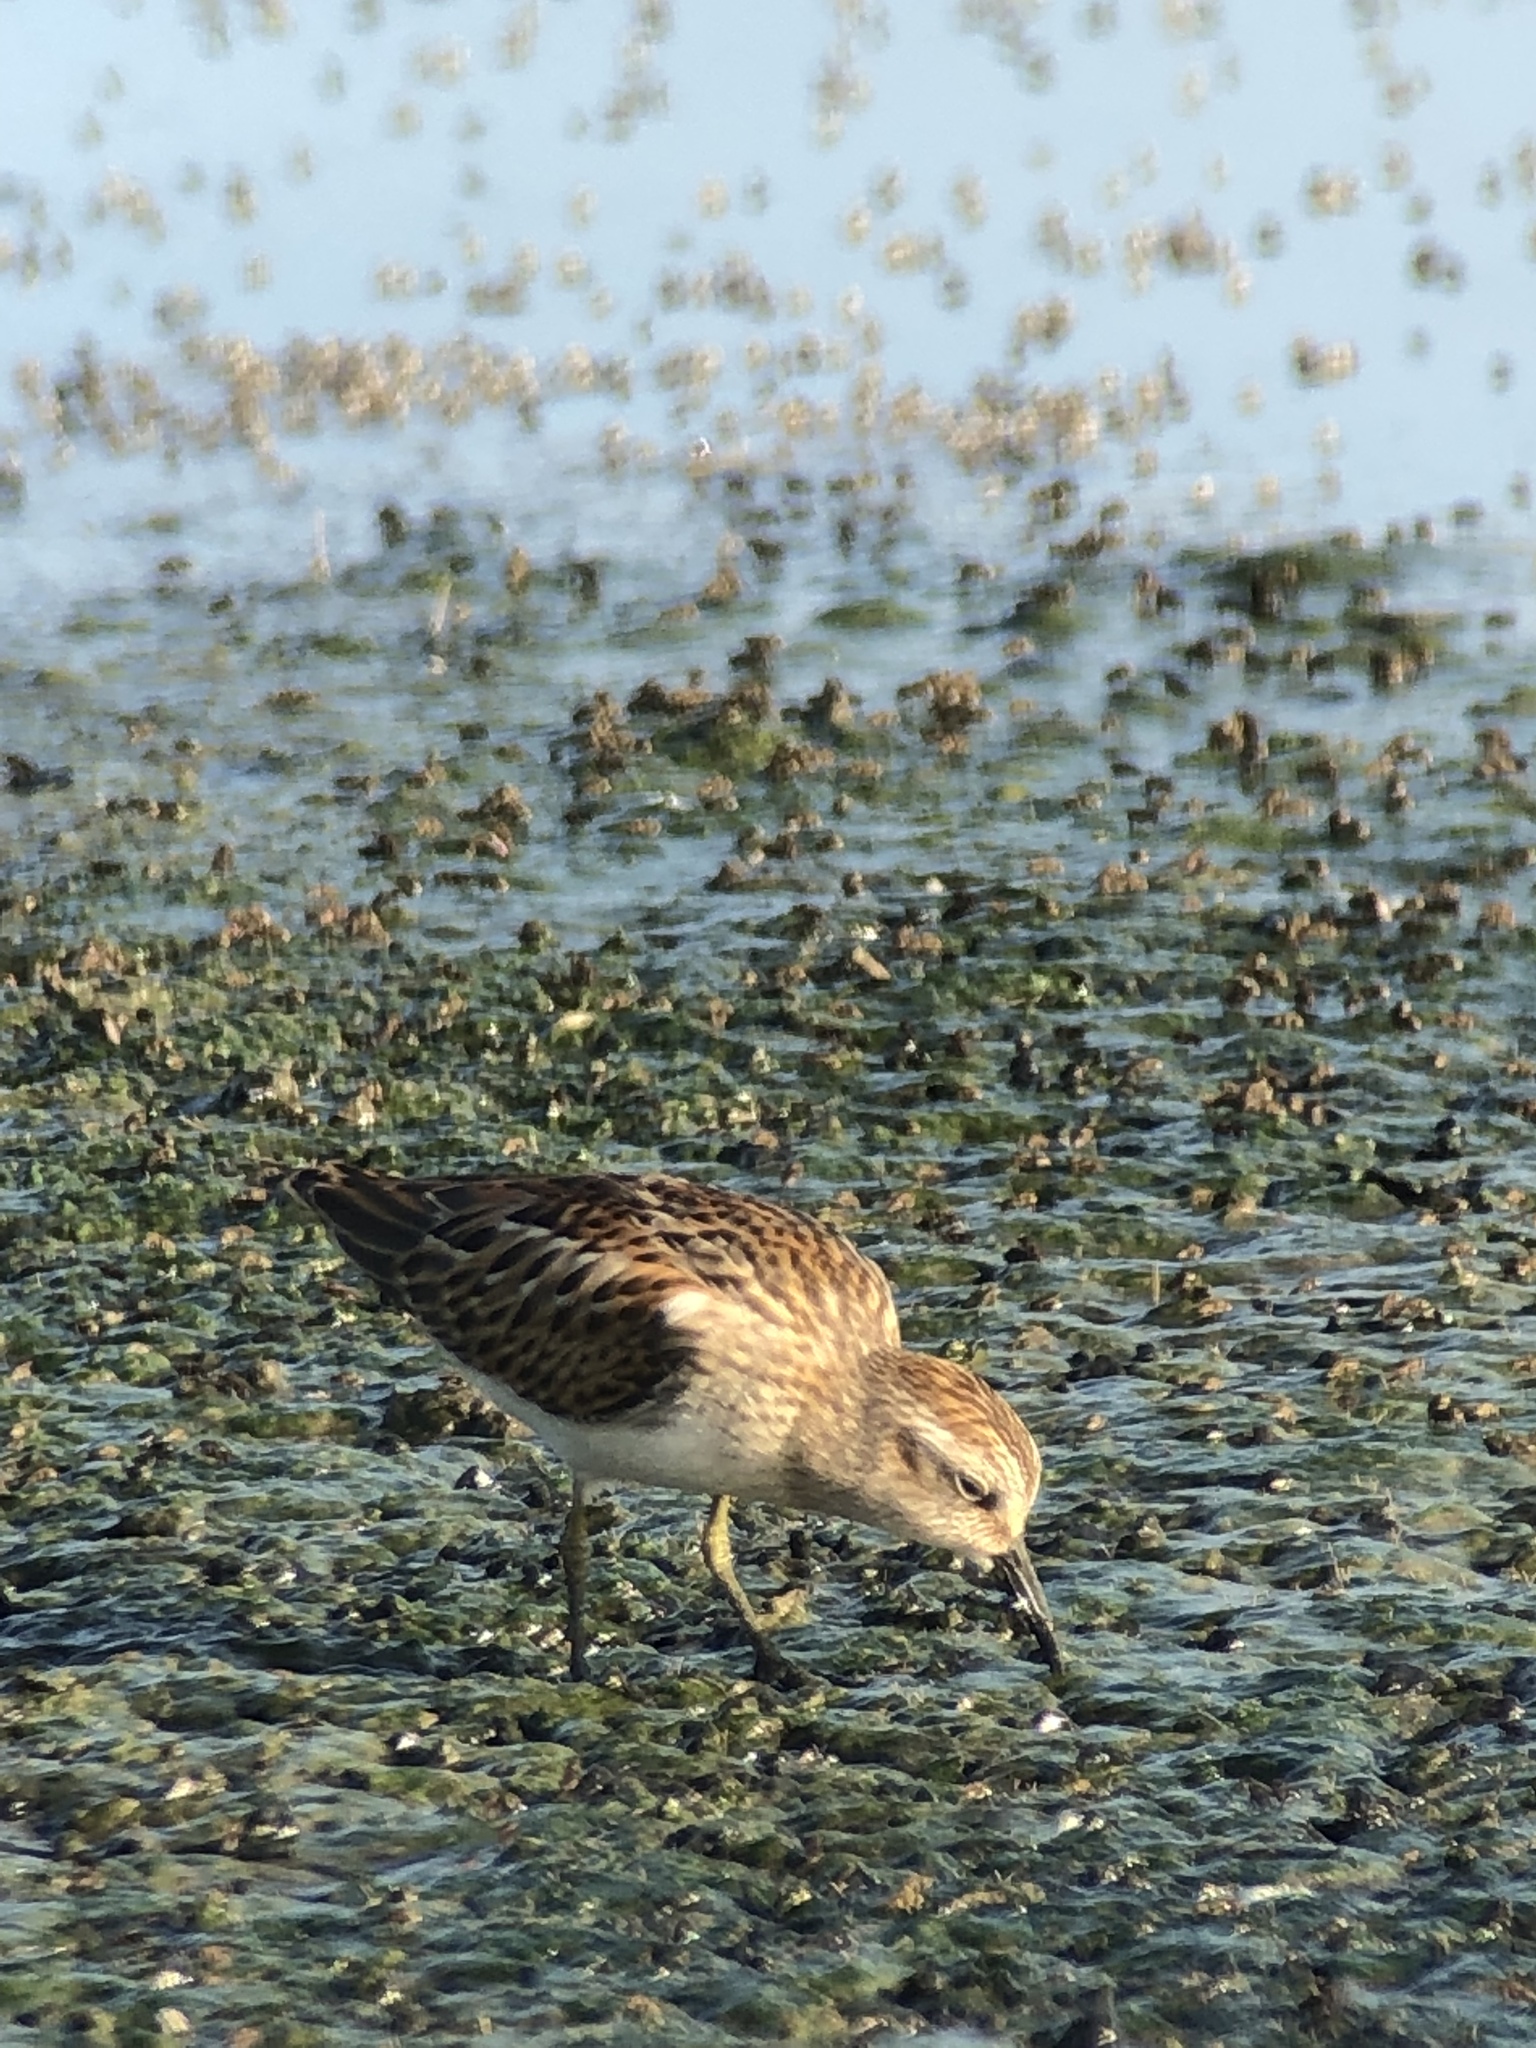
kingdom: Animalia
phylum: Chordata
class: Aves
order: Charadriiformes
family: Scolopacidae
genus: Calidris
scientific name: Calidris minutilla
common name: Least sandpiper
